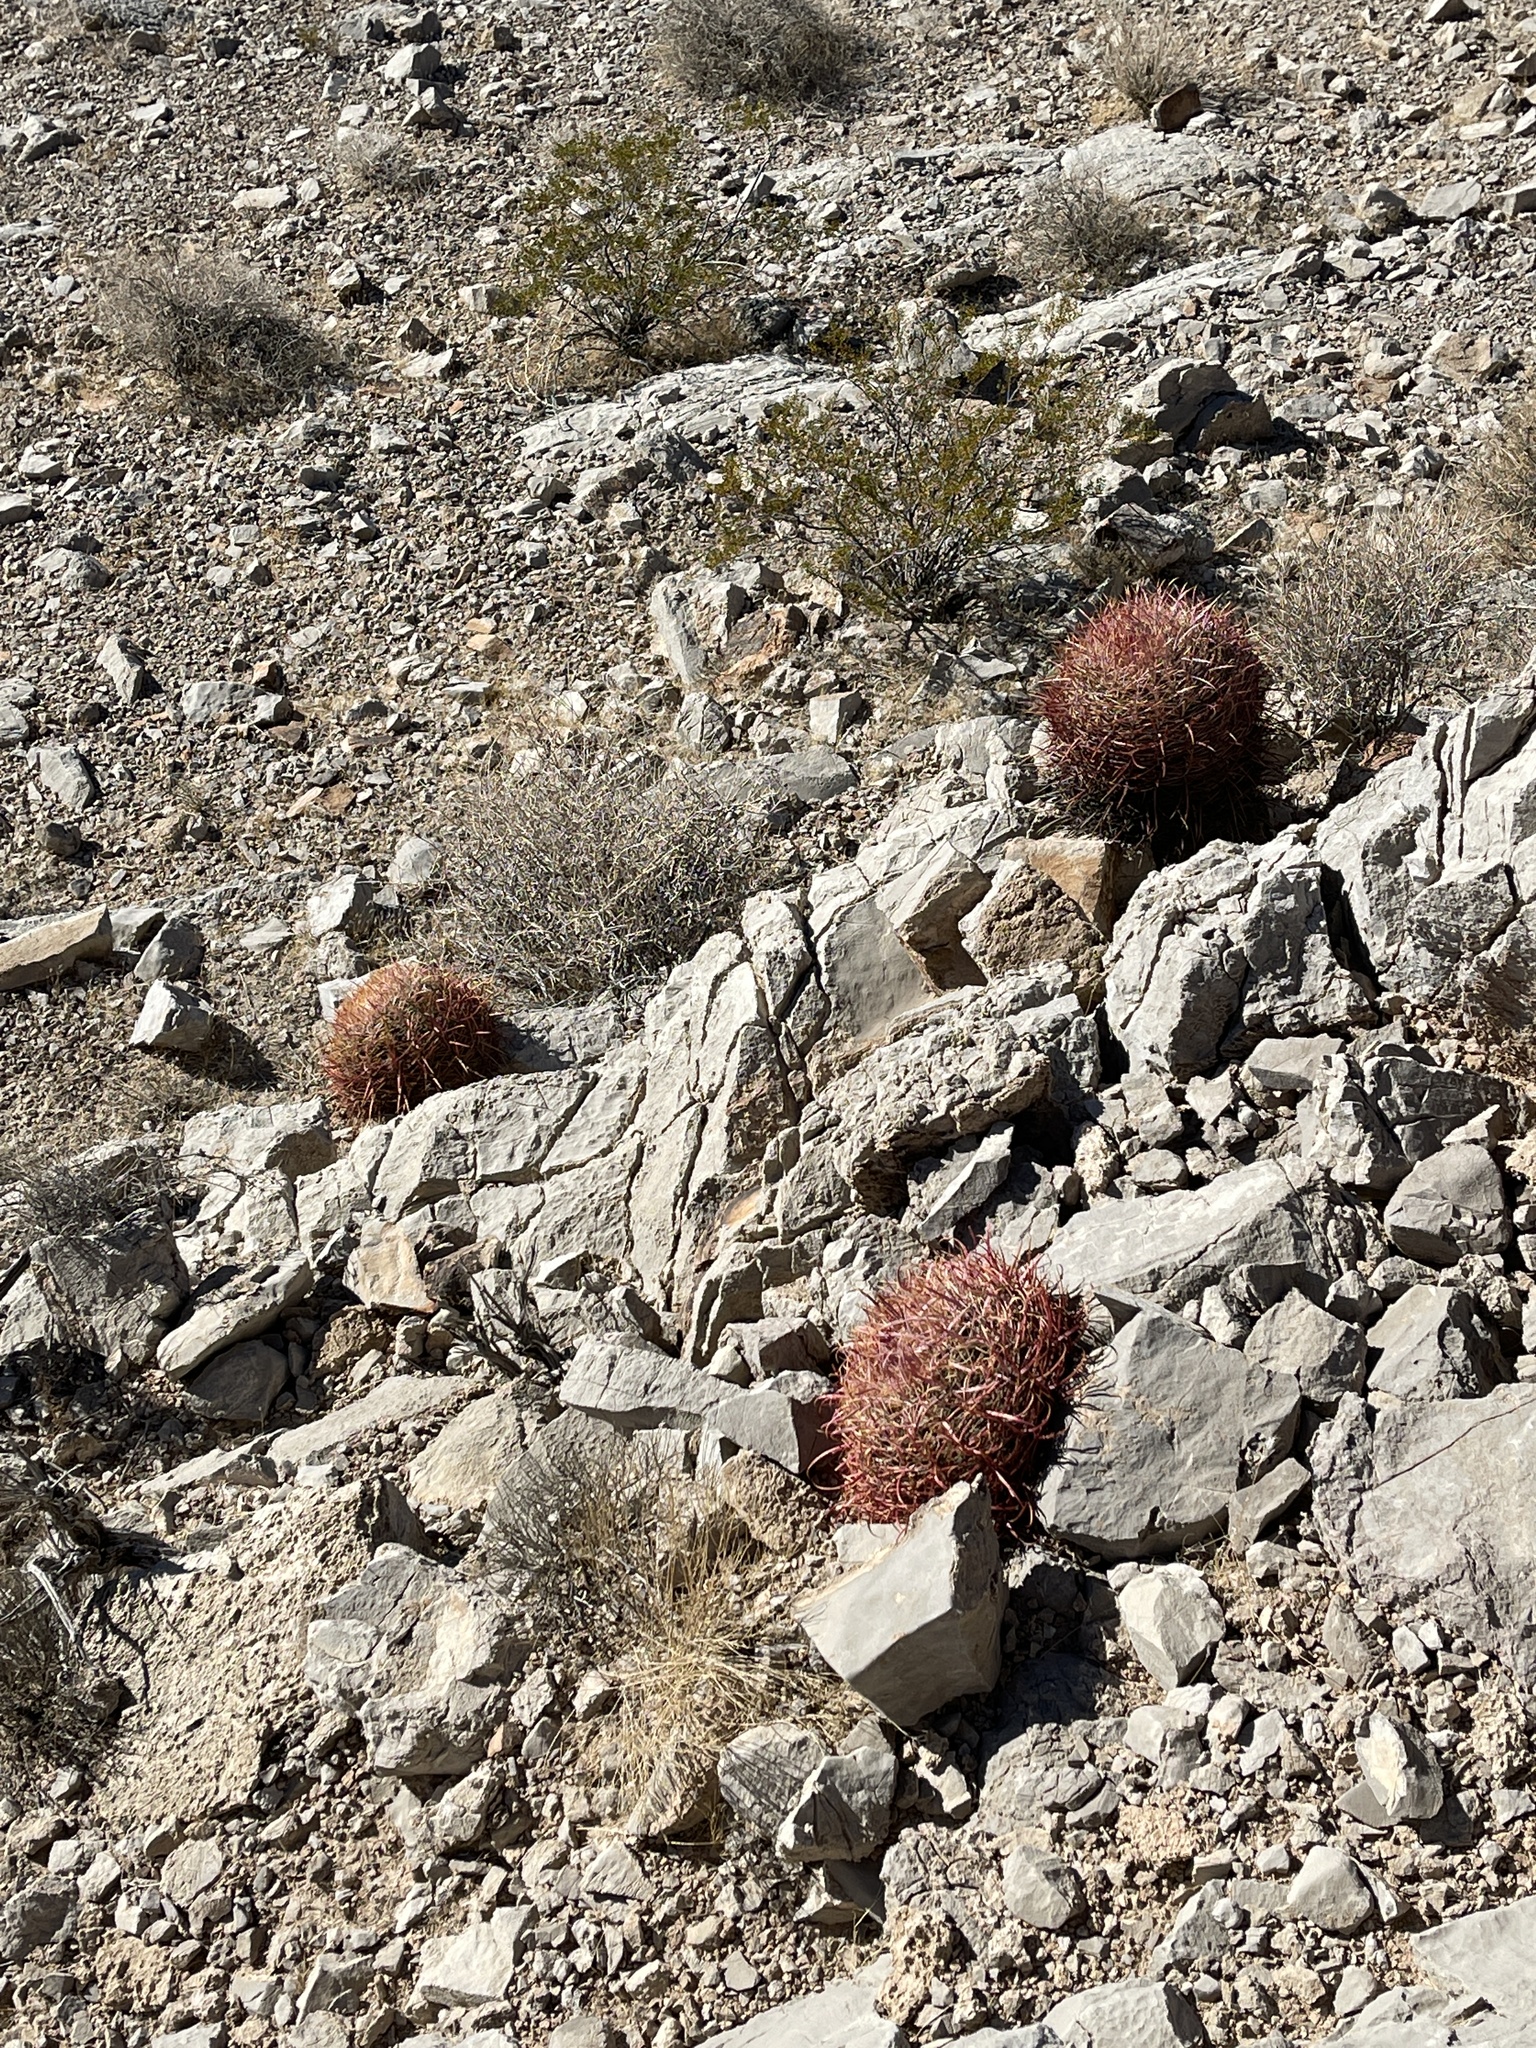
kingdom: Plantae
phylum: Tracheophyta
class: Magnoliopsida
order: Caryophyllales
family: Cactaceae
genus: Ferocactus
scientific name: Ferocactus cylindraceus
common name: California barrel cactus
